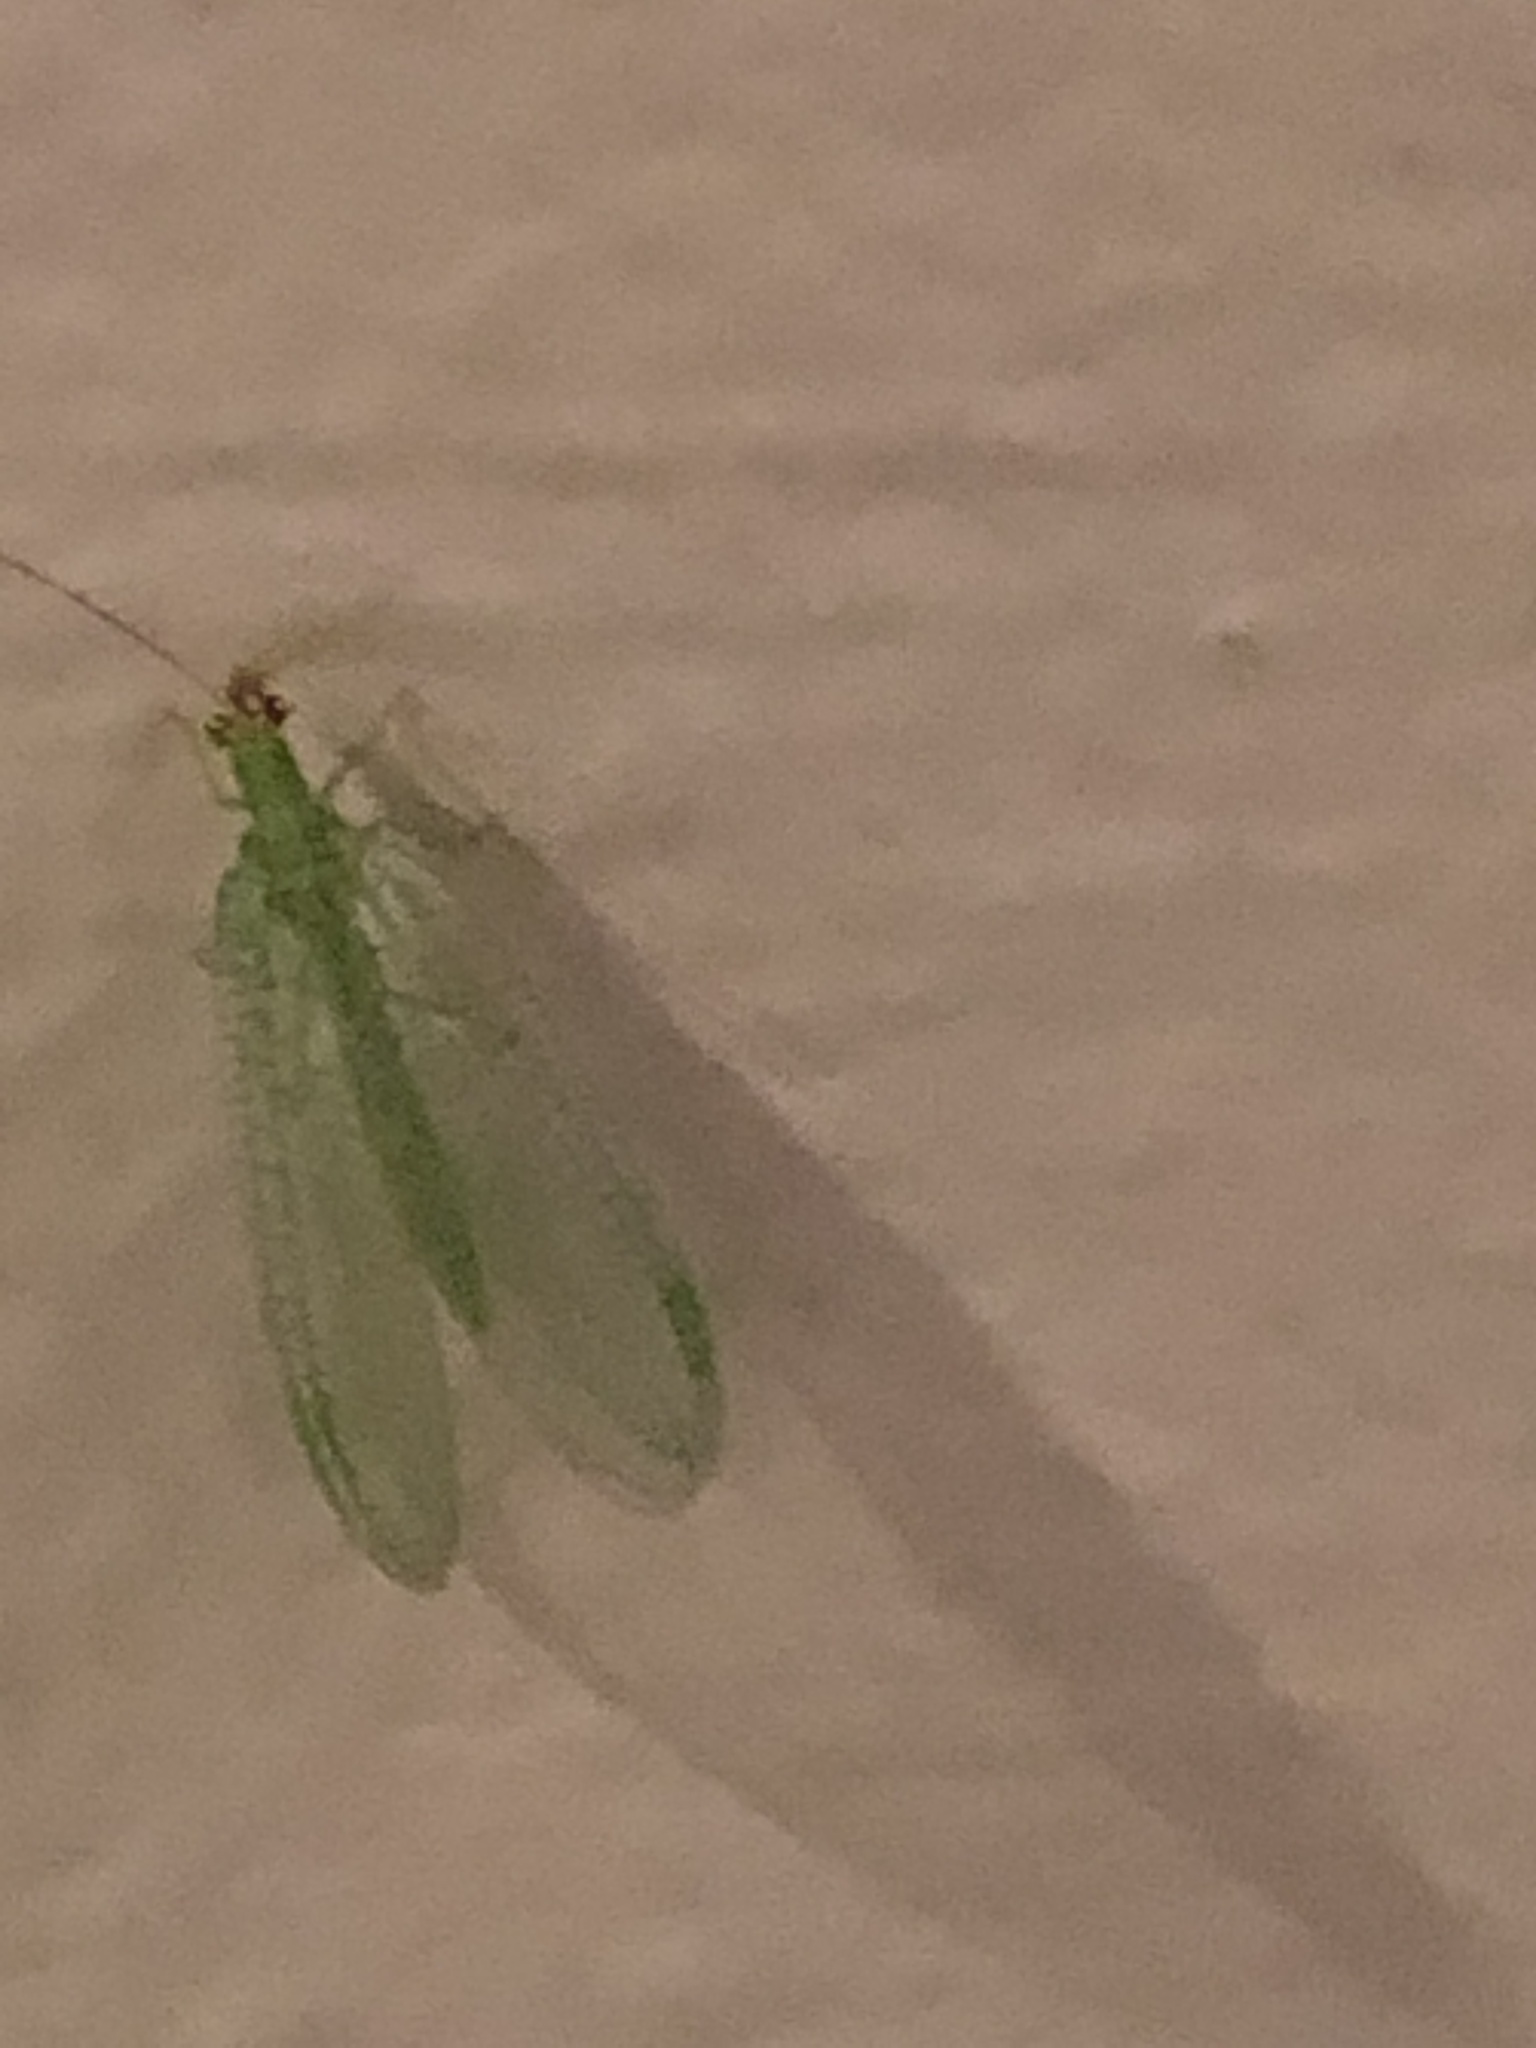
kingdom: Animalia
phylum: Arthropoda
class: Insecta
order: Neuroptera
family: Chrysopidae
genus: Chrysopa
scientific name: Chrysopa oculata
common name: Golden-eyed lacewing
